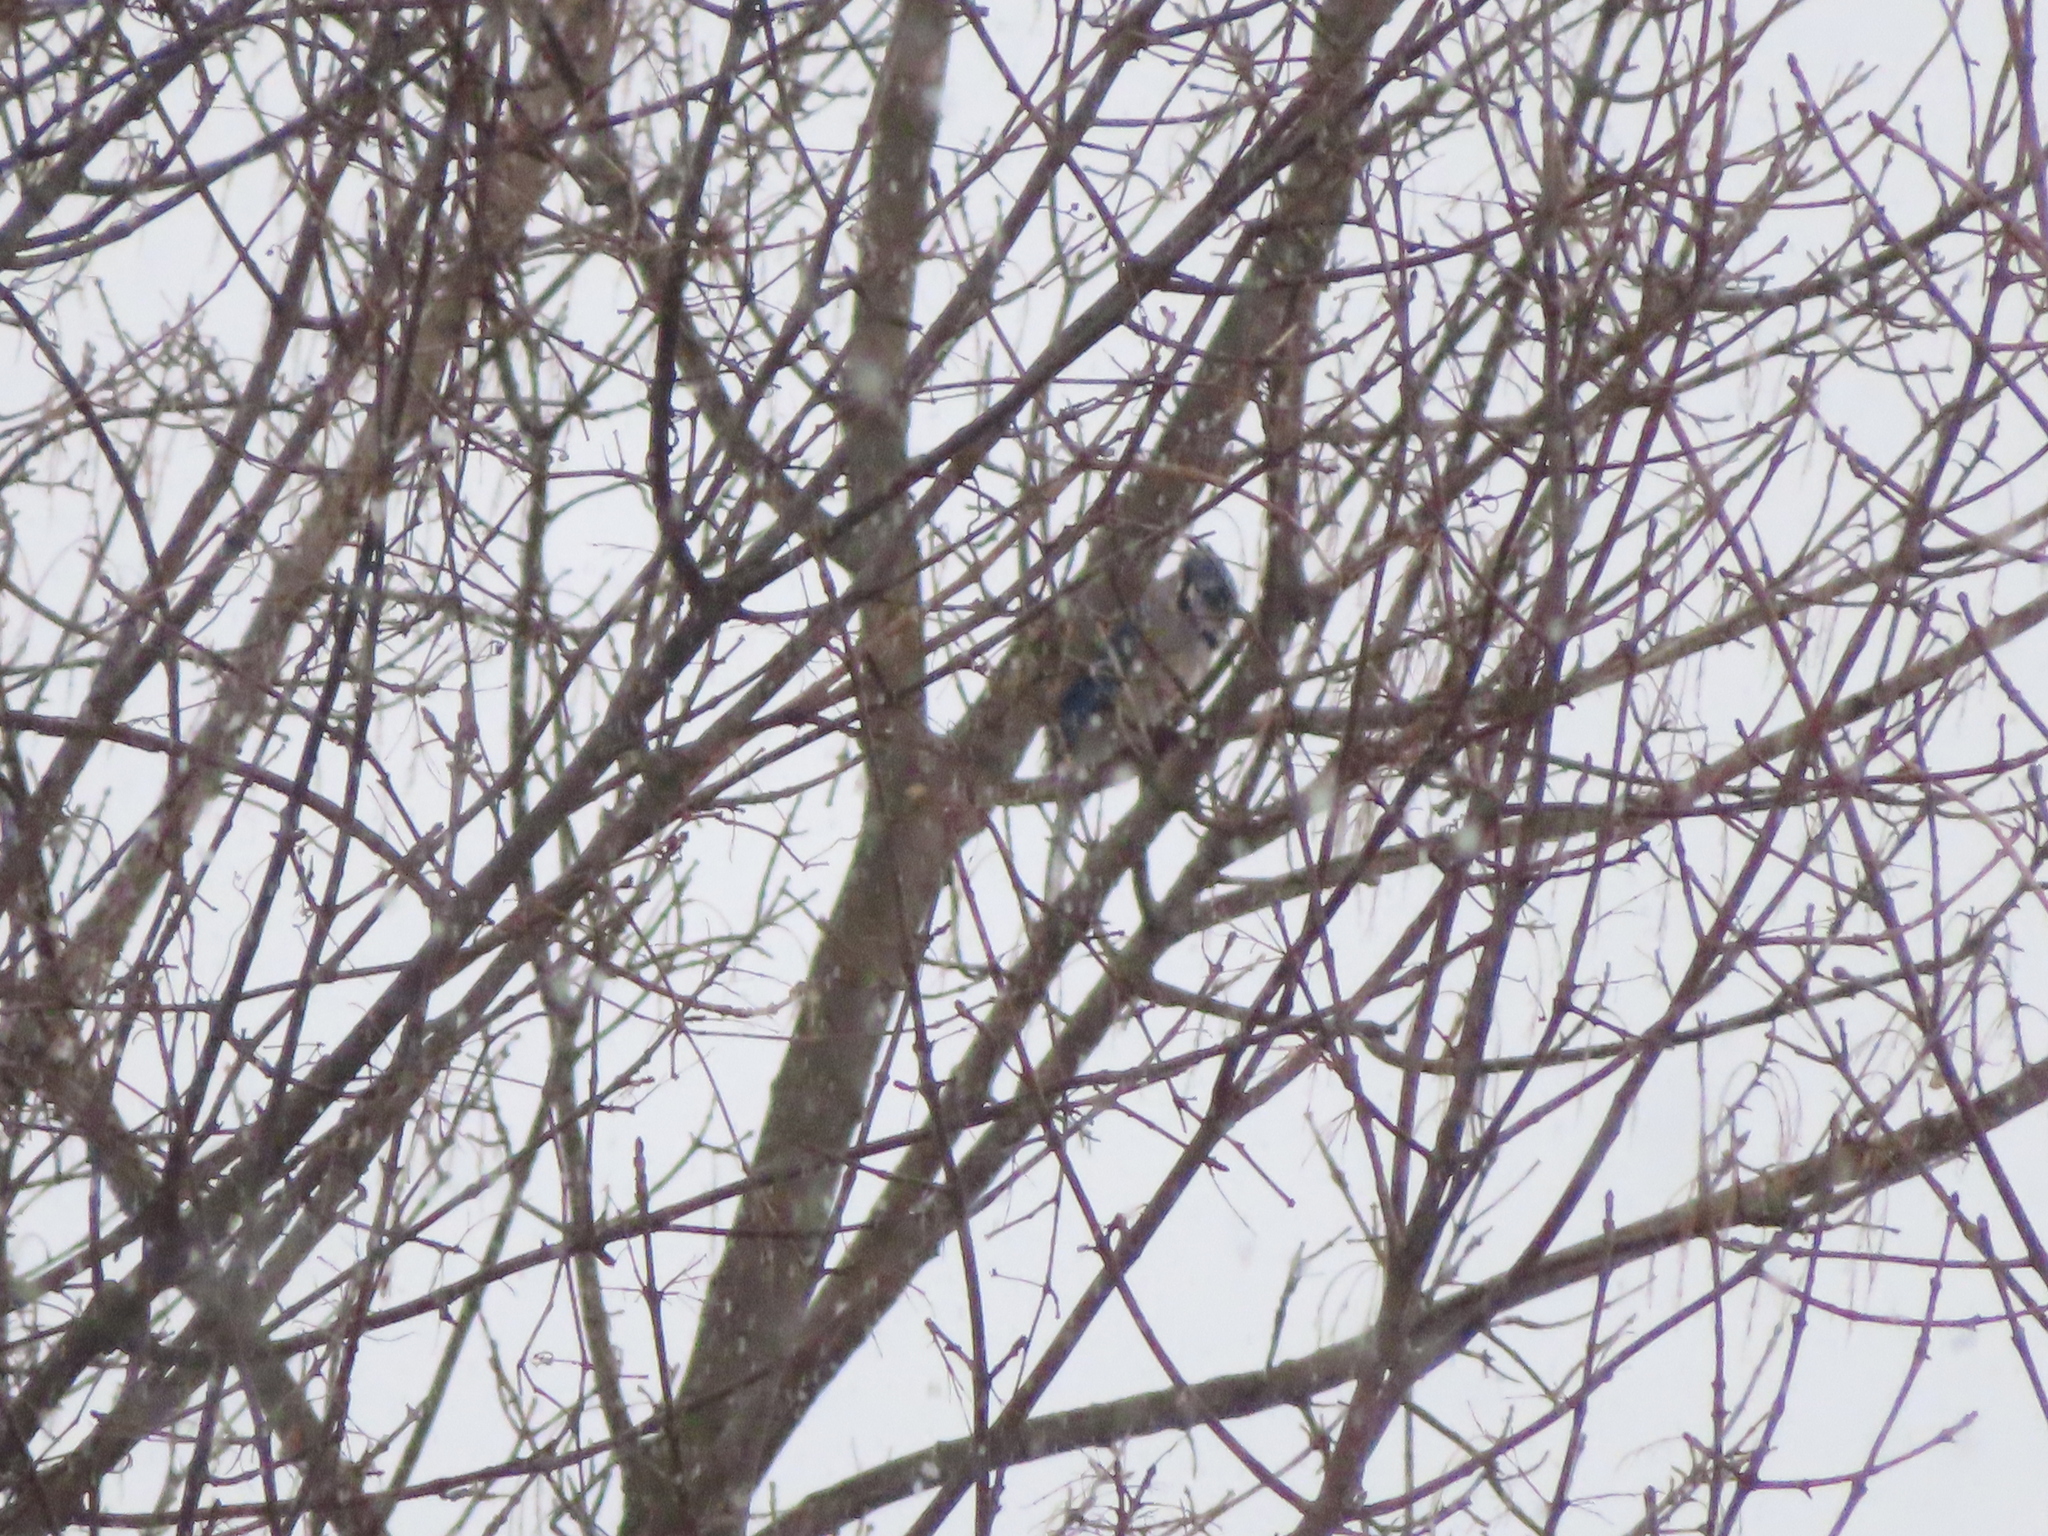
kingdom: Animalia
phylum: Chordata
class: Aves
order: Passeriformes
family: Corvidae
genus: Cyanocitta
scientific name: Cyanocitta cristata
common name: Blue jay
